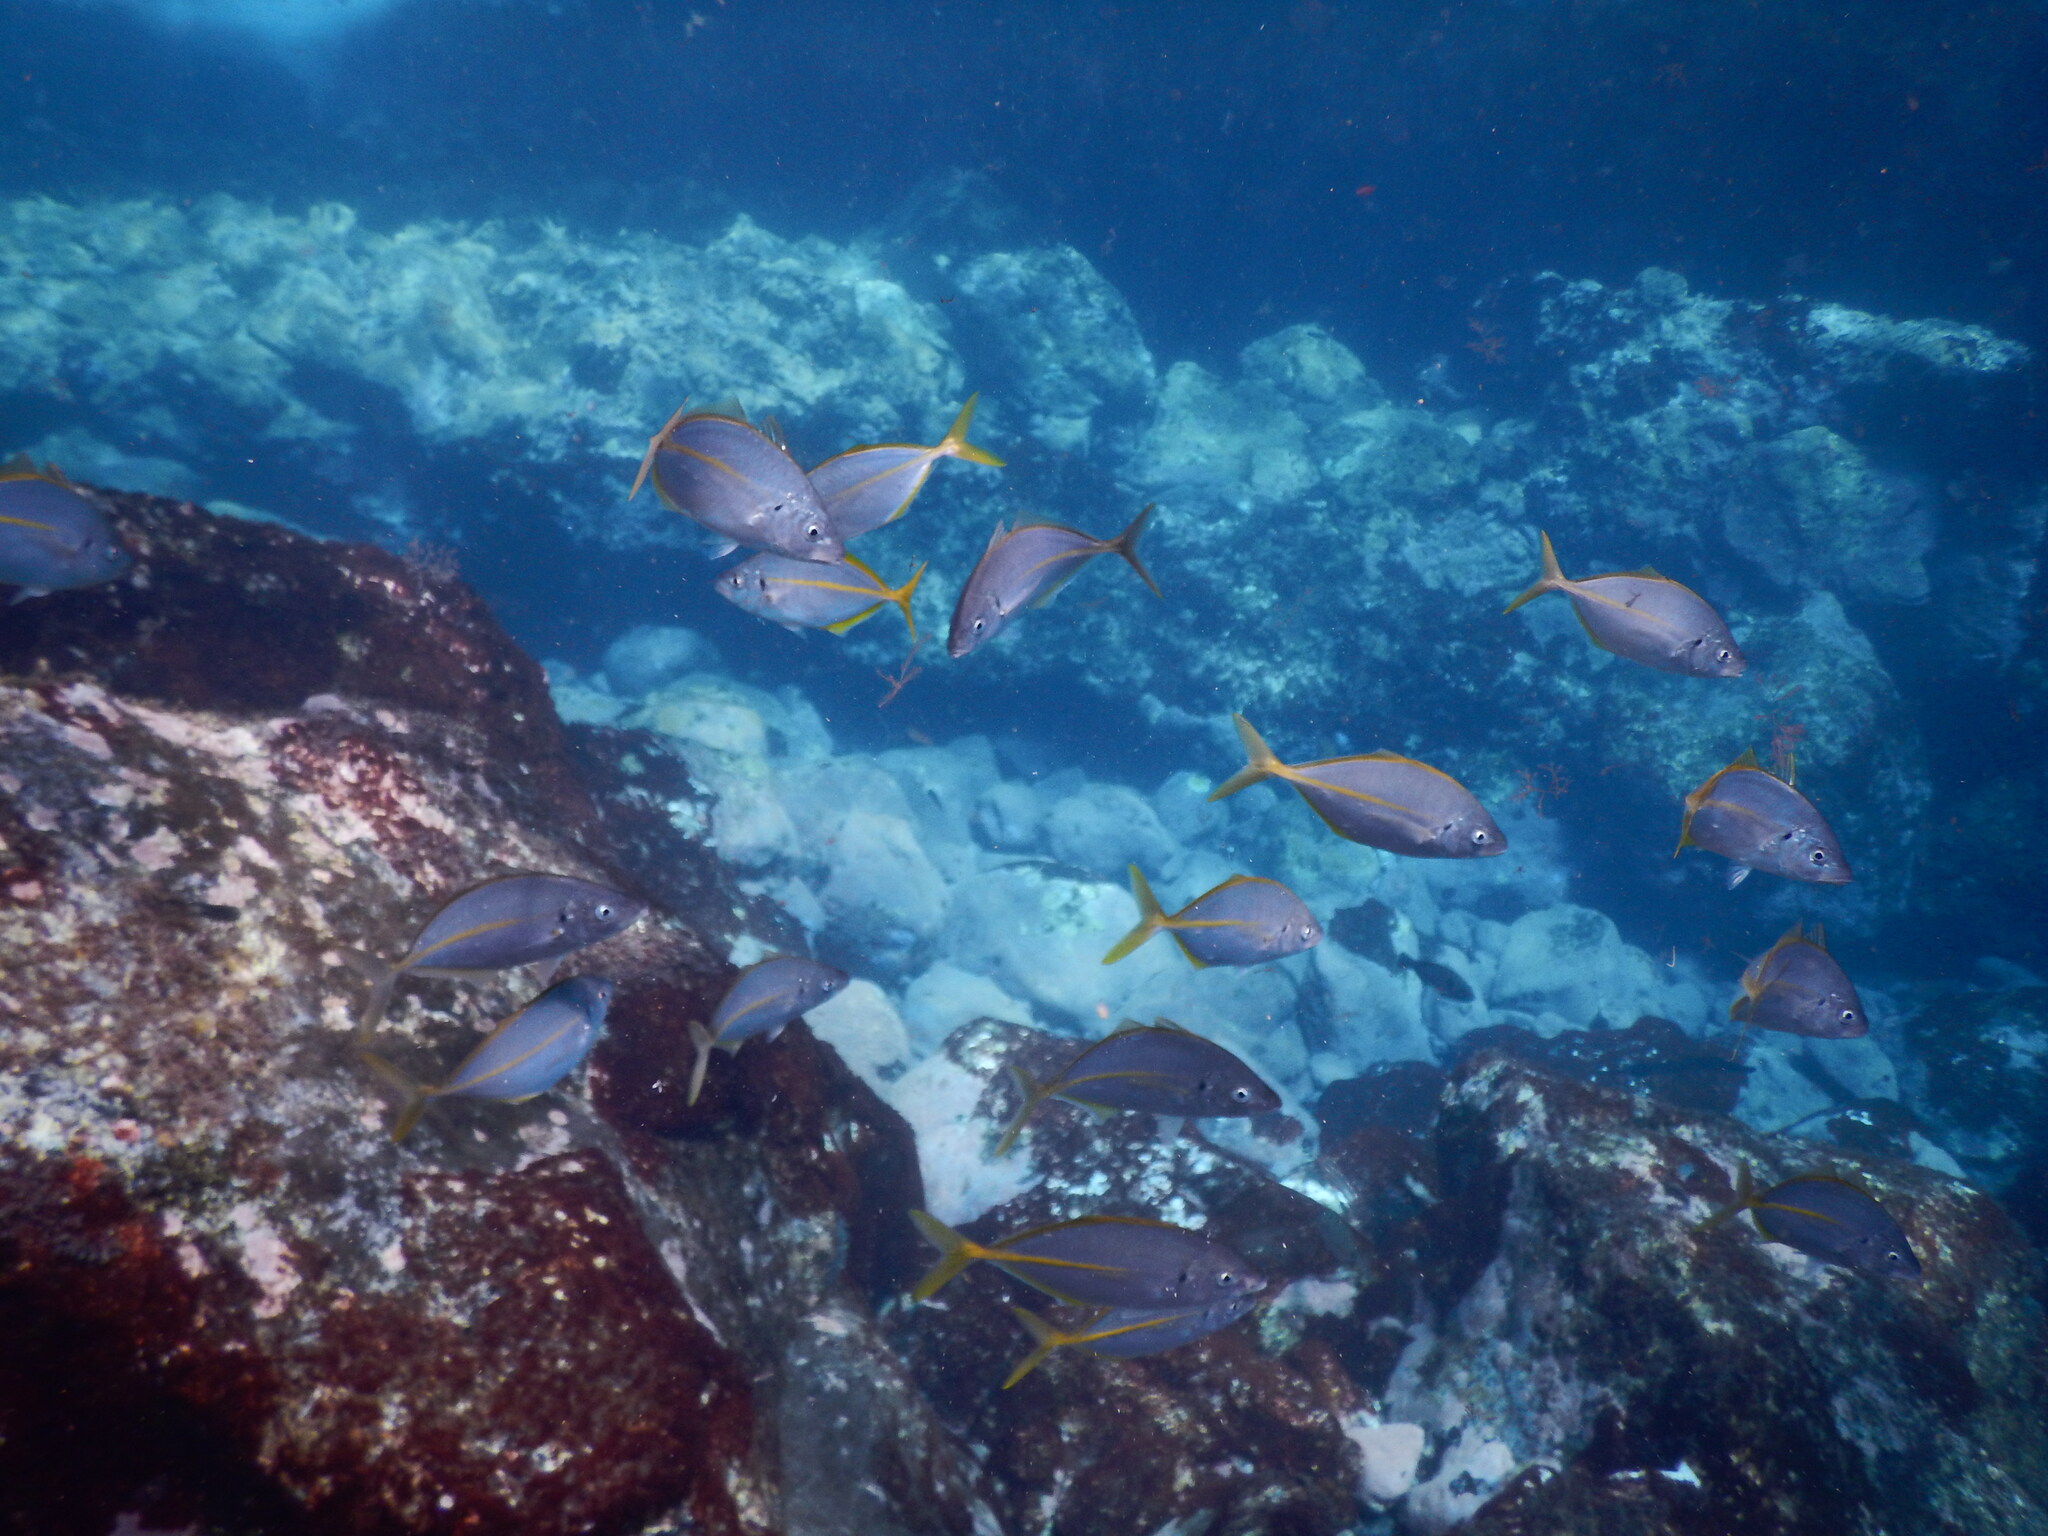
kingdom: Animalia
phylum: Chordata
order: Perciformes
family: Carangidae
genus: Pseudocaranx
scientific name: Pseudocaranx dentex
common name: White trevally
